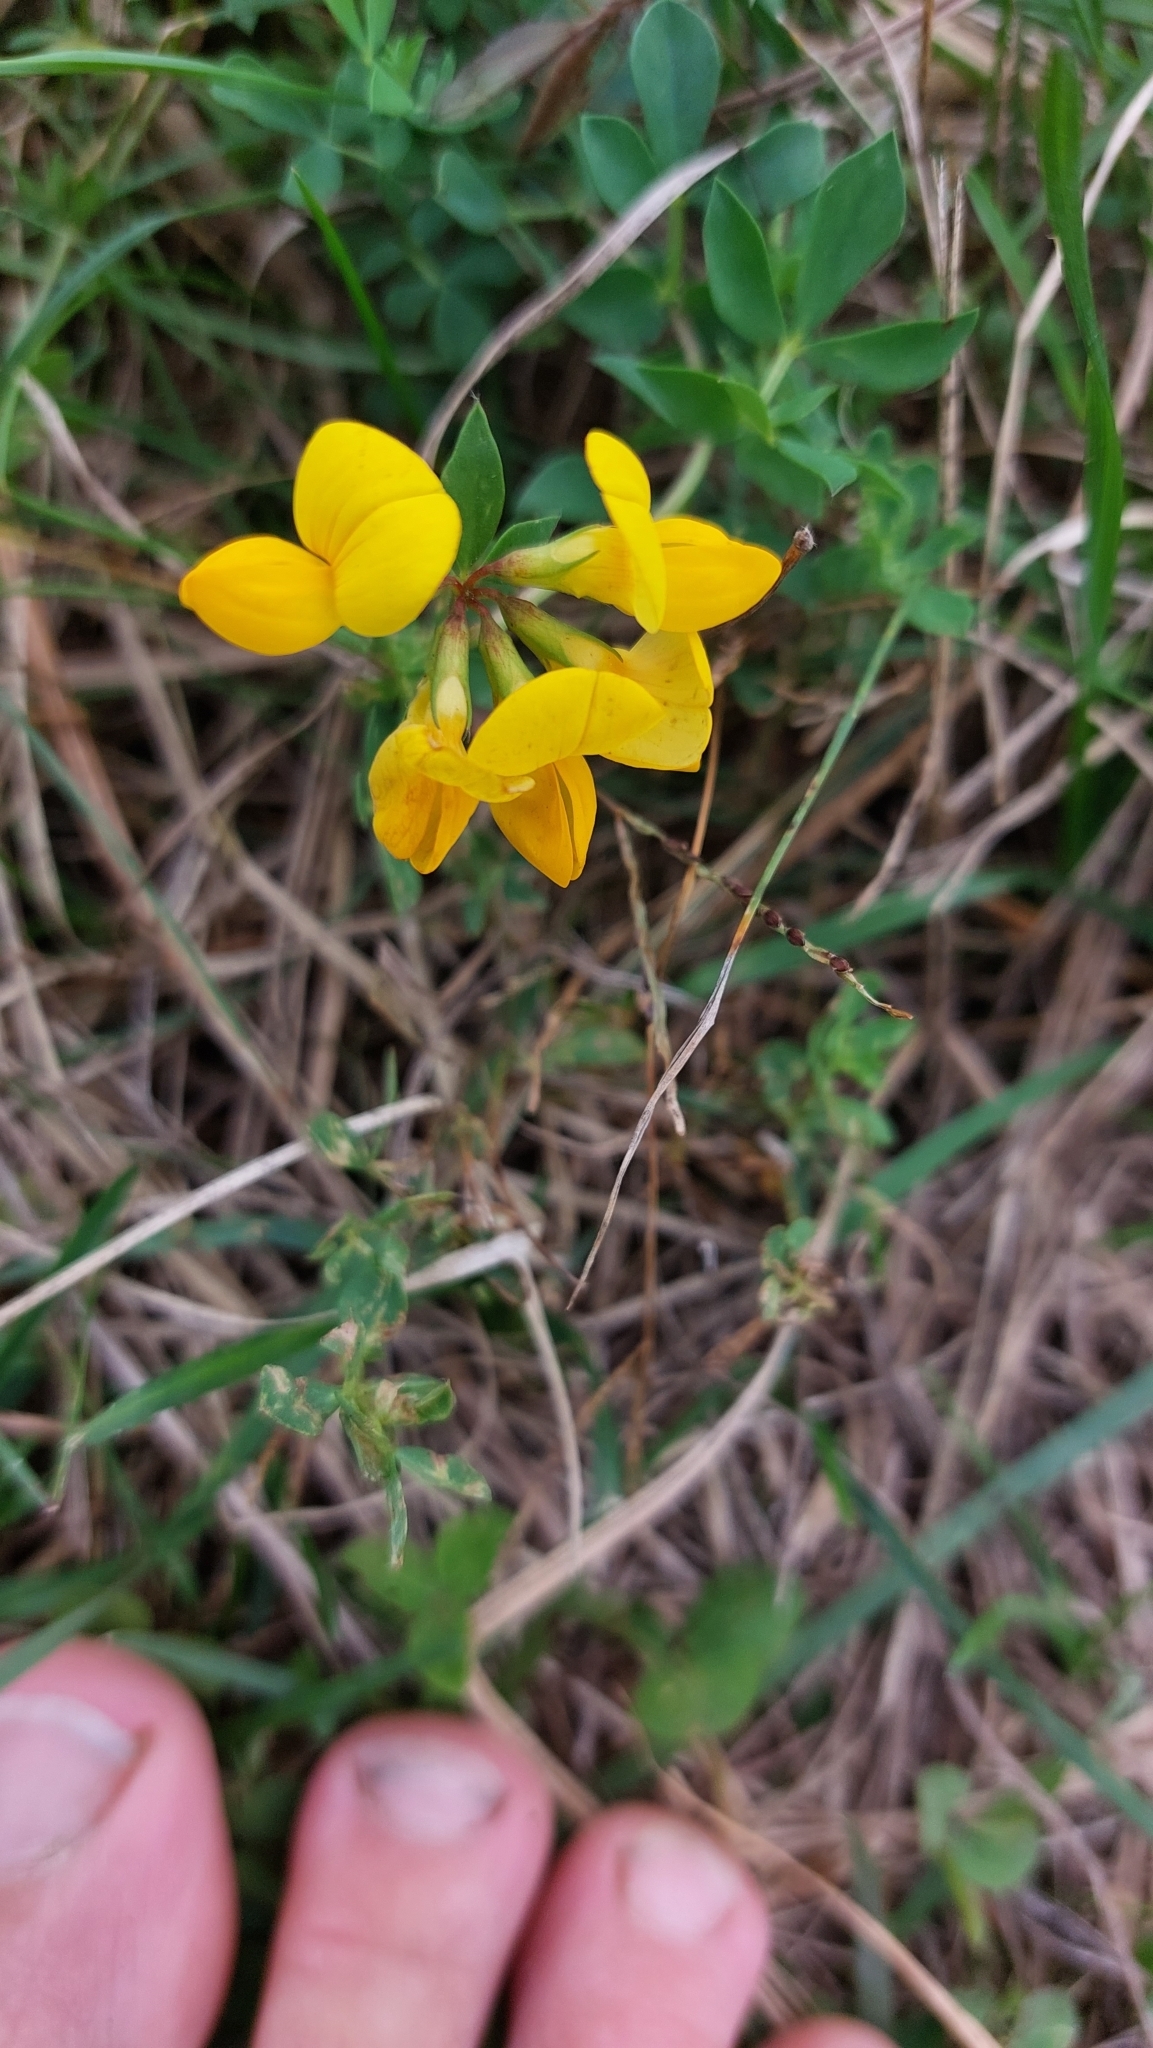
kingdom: Plantae
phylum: Tracheophyta
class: Magnoliopsida
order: Fabales
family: Fabaceae
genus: Lotus
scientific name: Lotus corniculatus
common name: Common bird's-foot-trefoil
